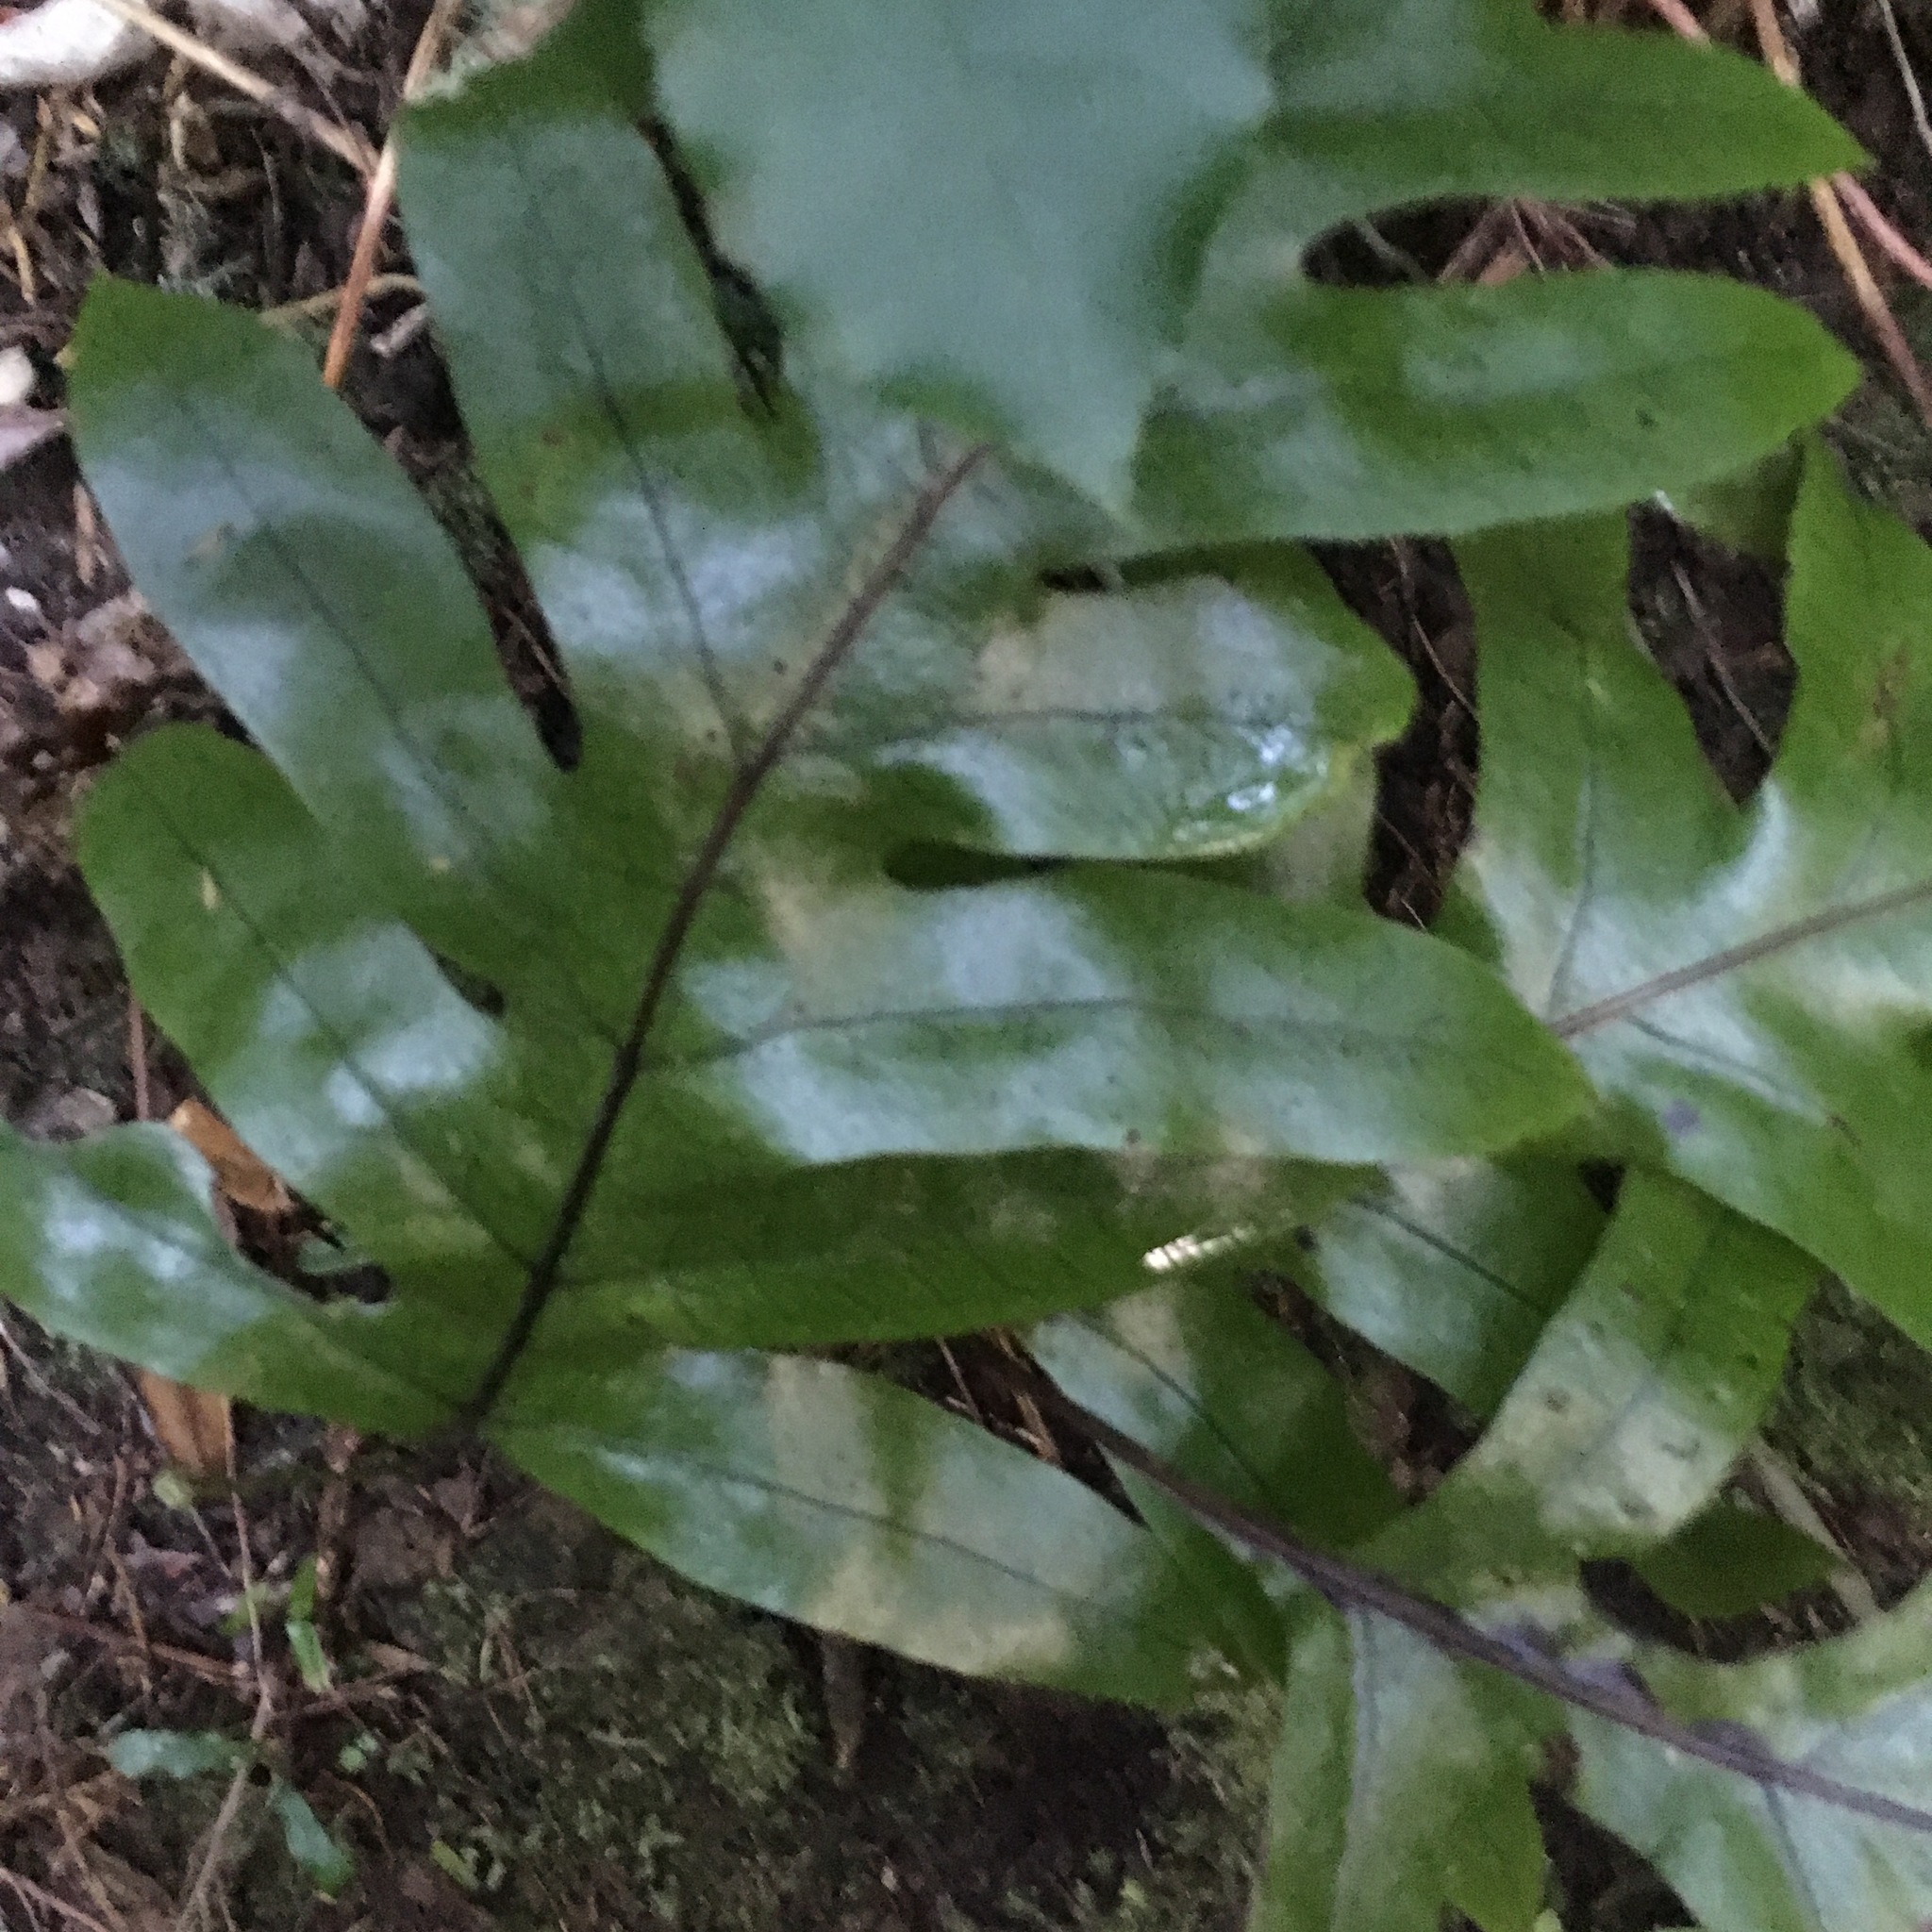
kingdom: Plantae
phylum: Tracheophyta
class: Polypodiopsida
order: Polypodiales
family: Polypodiaceae
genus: Lecanopteris
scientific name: Lecanopteris pustulata
